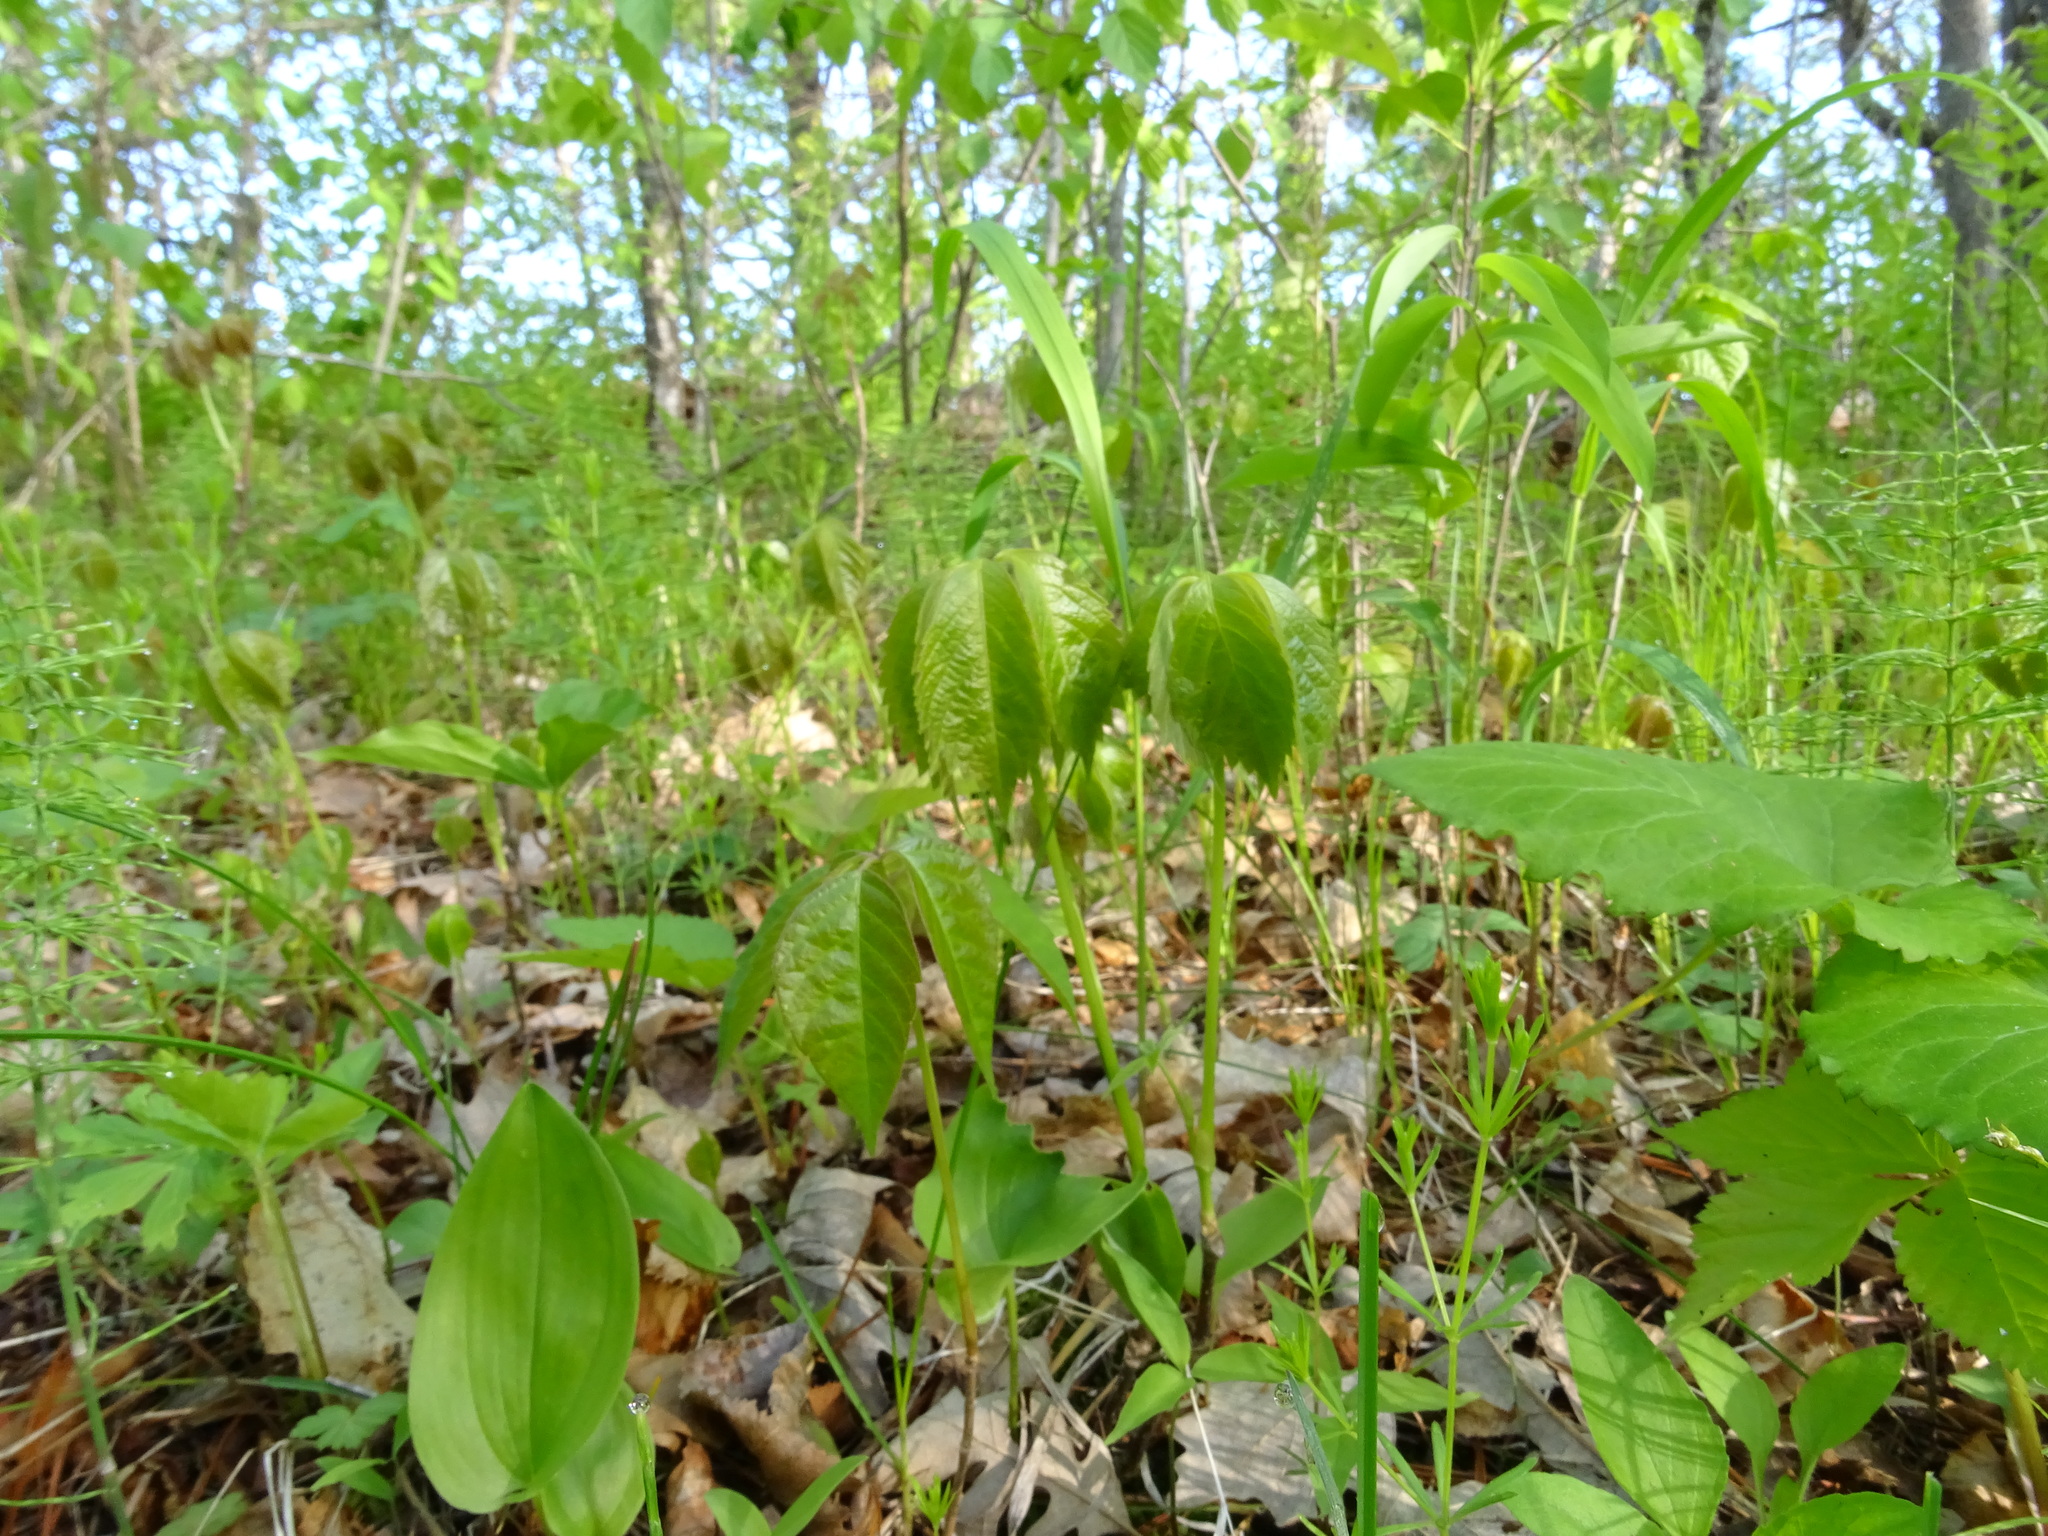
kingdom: Plantae
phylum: Tracheophyta
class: Magnoliopsida
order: Vitales
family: Vitaceae
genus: Parthenocissus
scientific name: Parthenocissus quinquefolia
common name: Virginia-creeper
